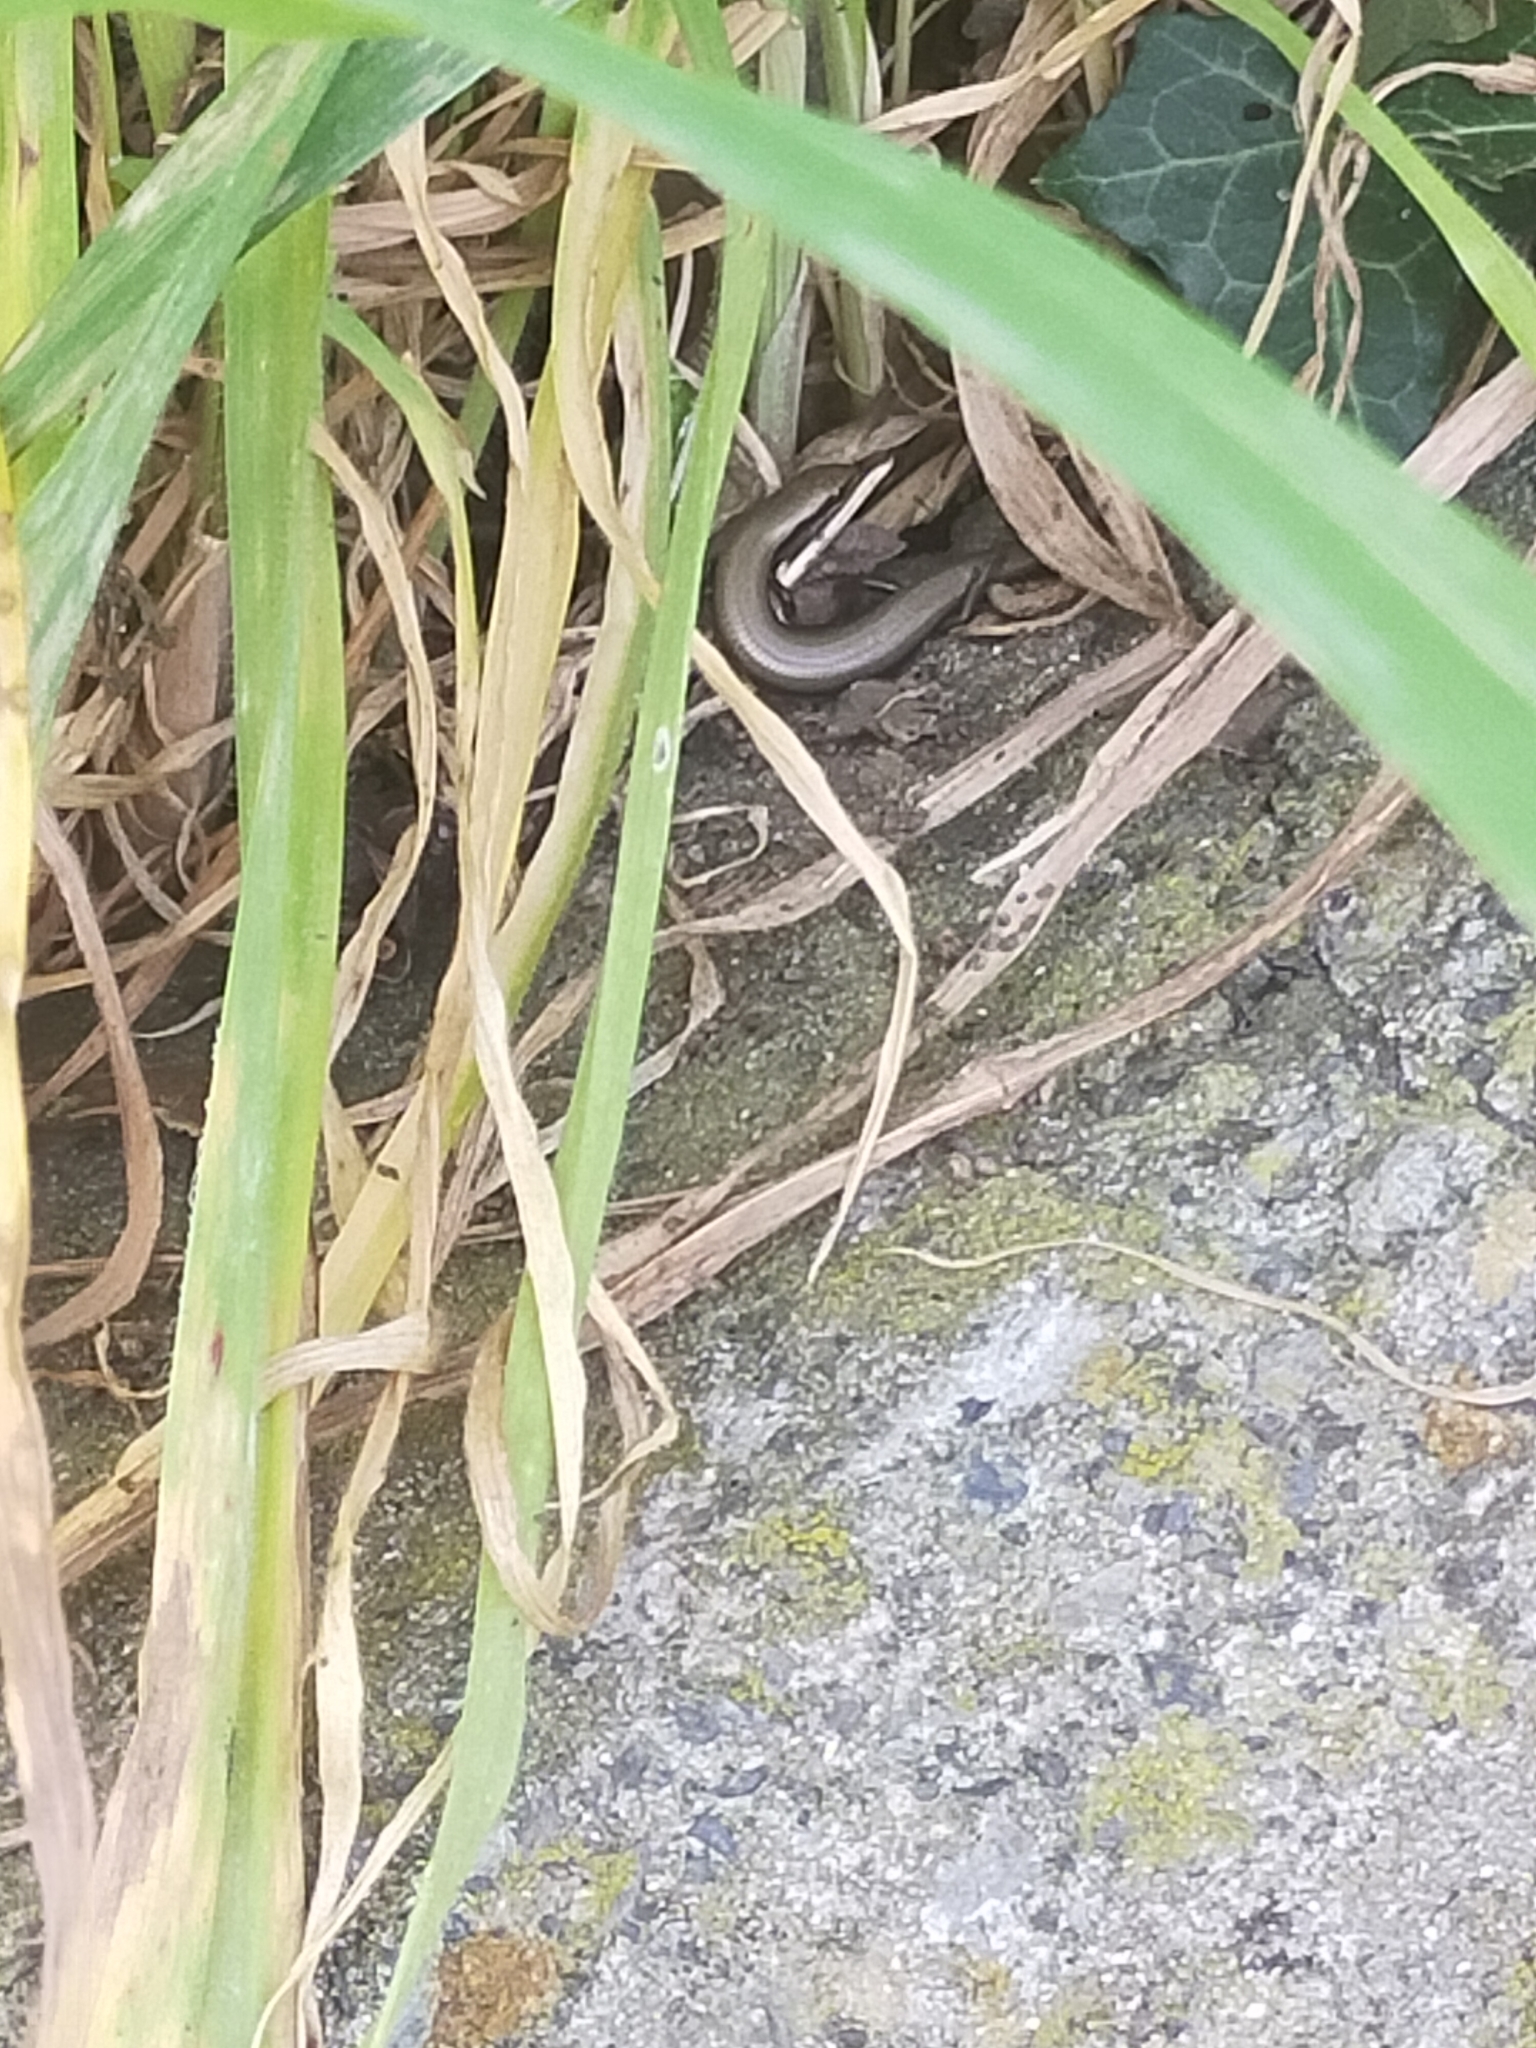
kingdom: Animalia
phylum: Chordata
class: Squamata
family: Scincidae
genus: Ablepharus
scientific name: Ablepharus kitaibelii
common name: Juniper skink
